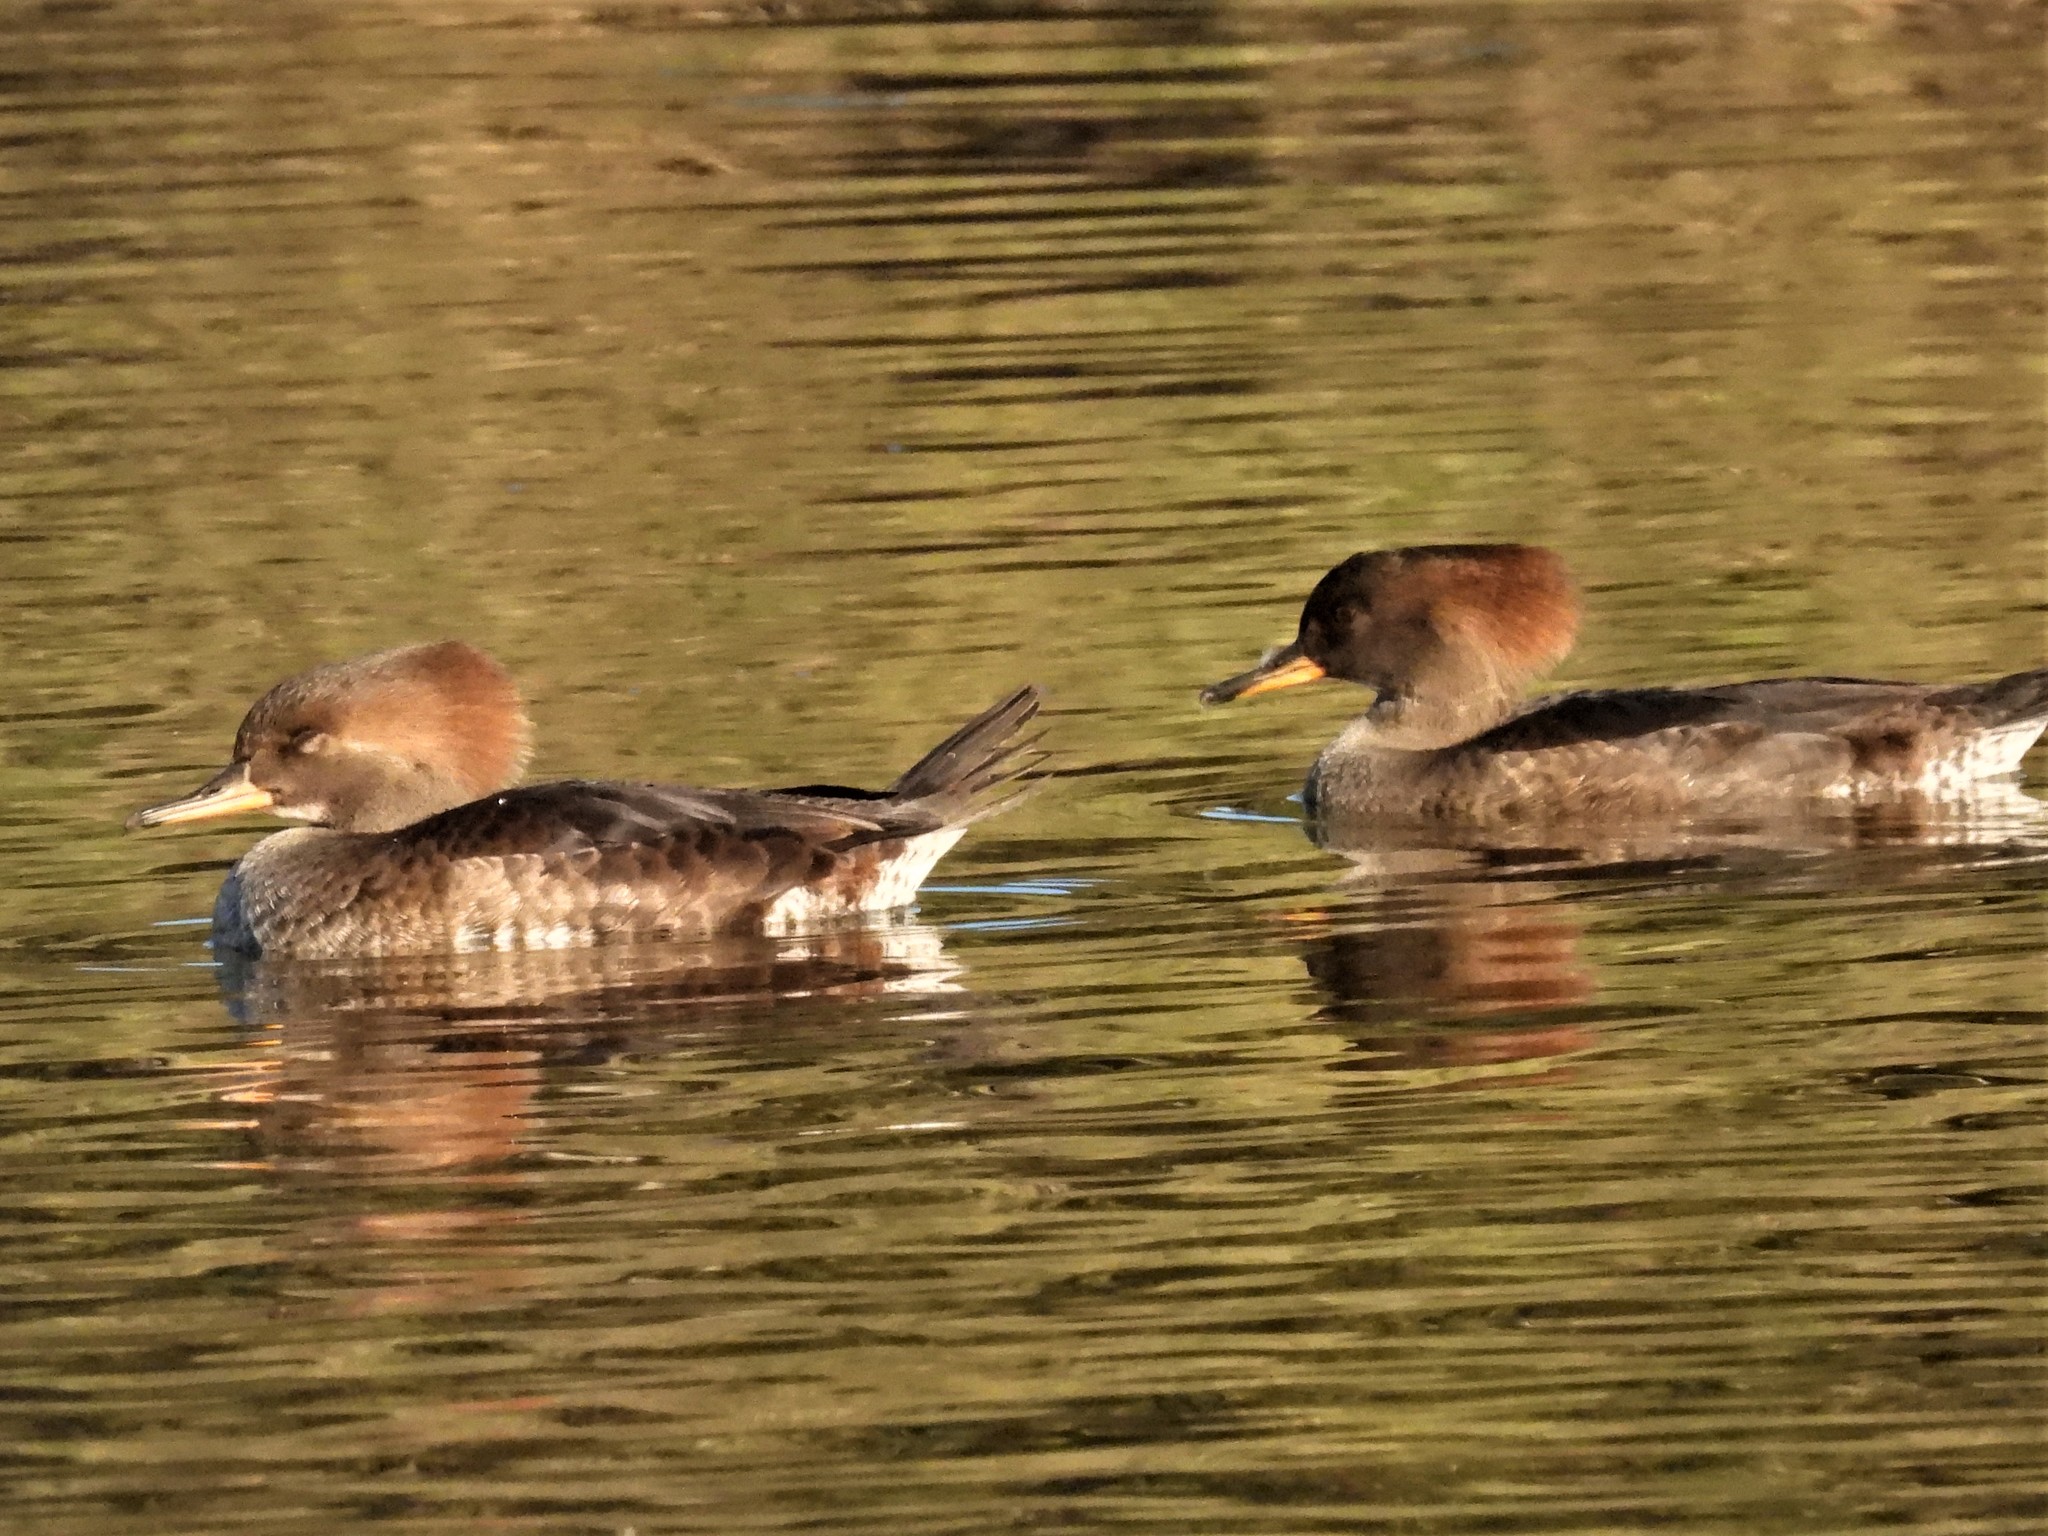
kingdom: Animalia
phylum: Chordata
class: Aves
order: Anseriformes
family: Anatidae
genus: Lophodytes
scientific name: Lophodytes cucullatus
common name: Hooded merganser
